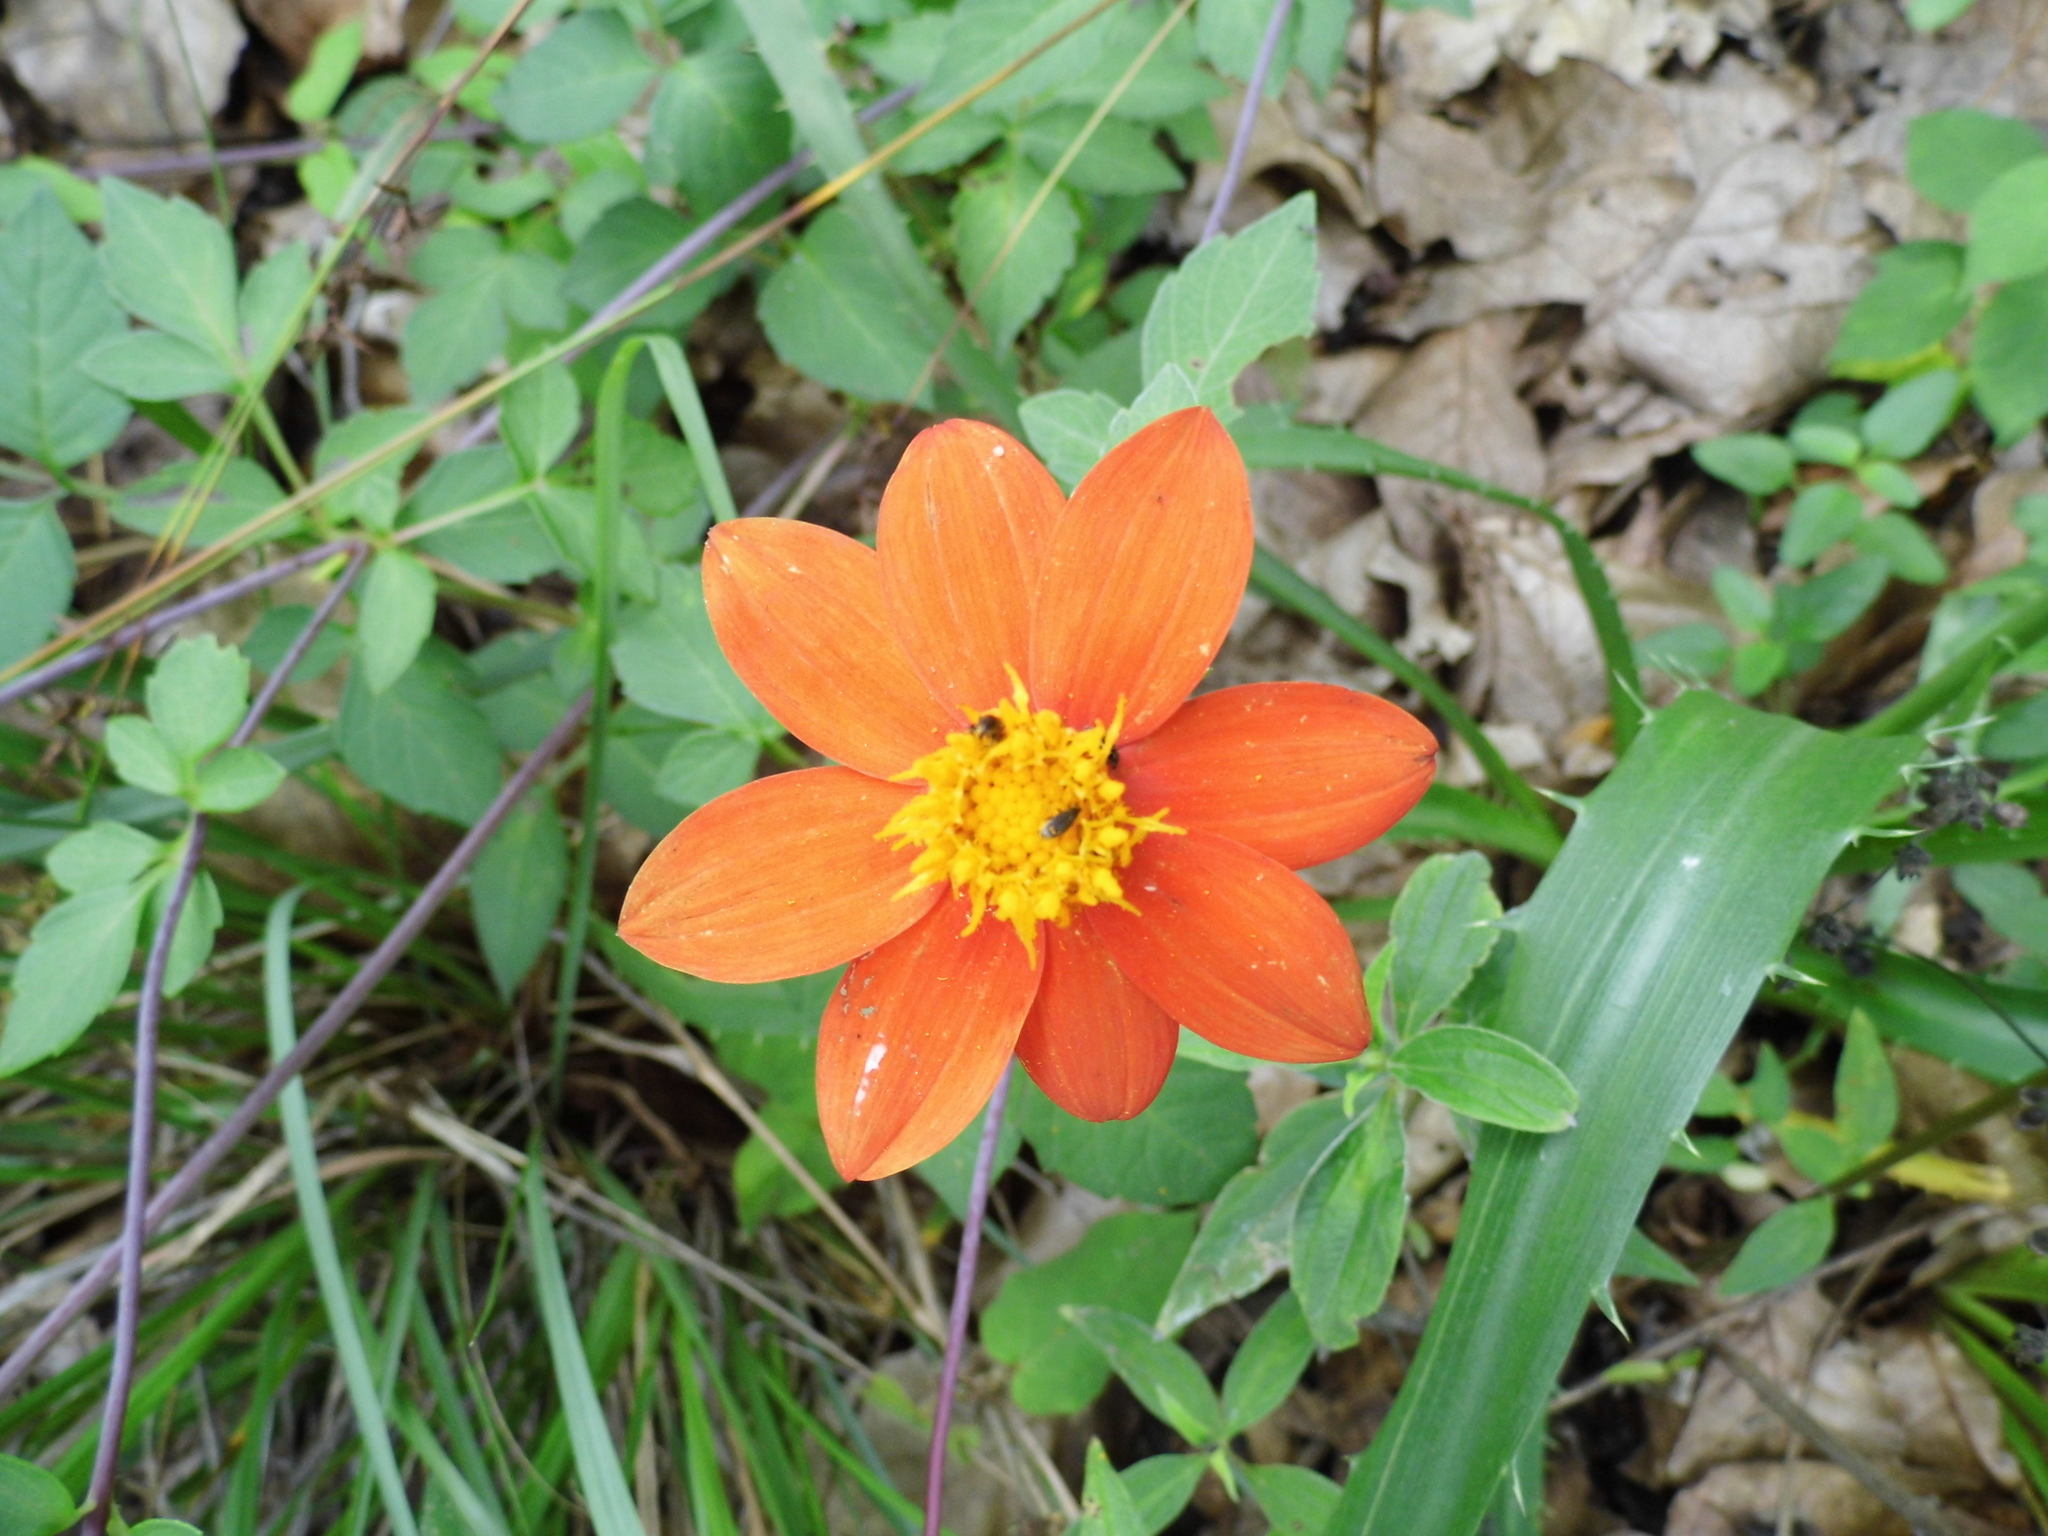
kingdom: Plantae
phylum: Tracheophyta
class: Magnoliopsida
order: Asterales
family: Asteraceae
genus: Dahlia
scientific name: Dahlia coccinea
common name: Red dahlia
